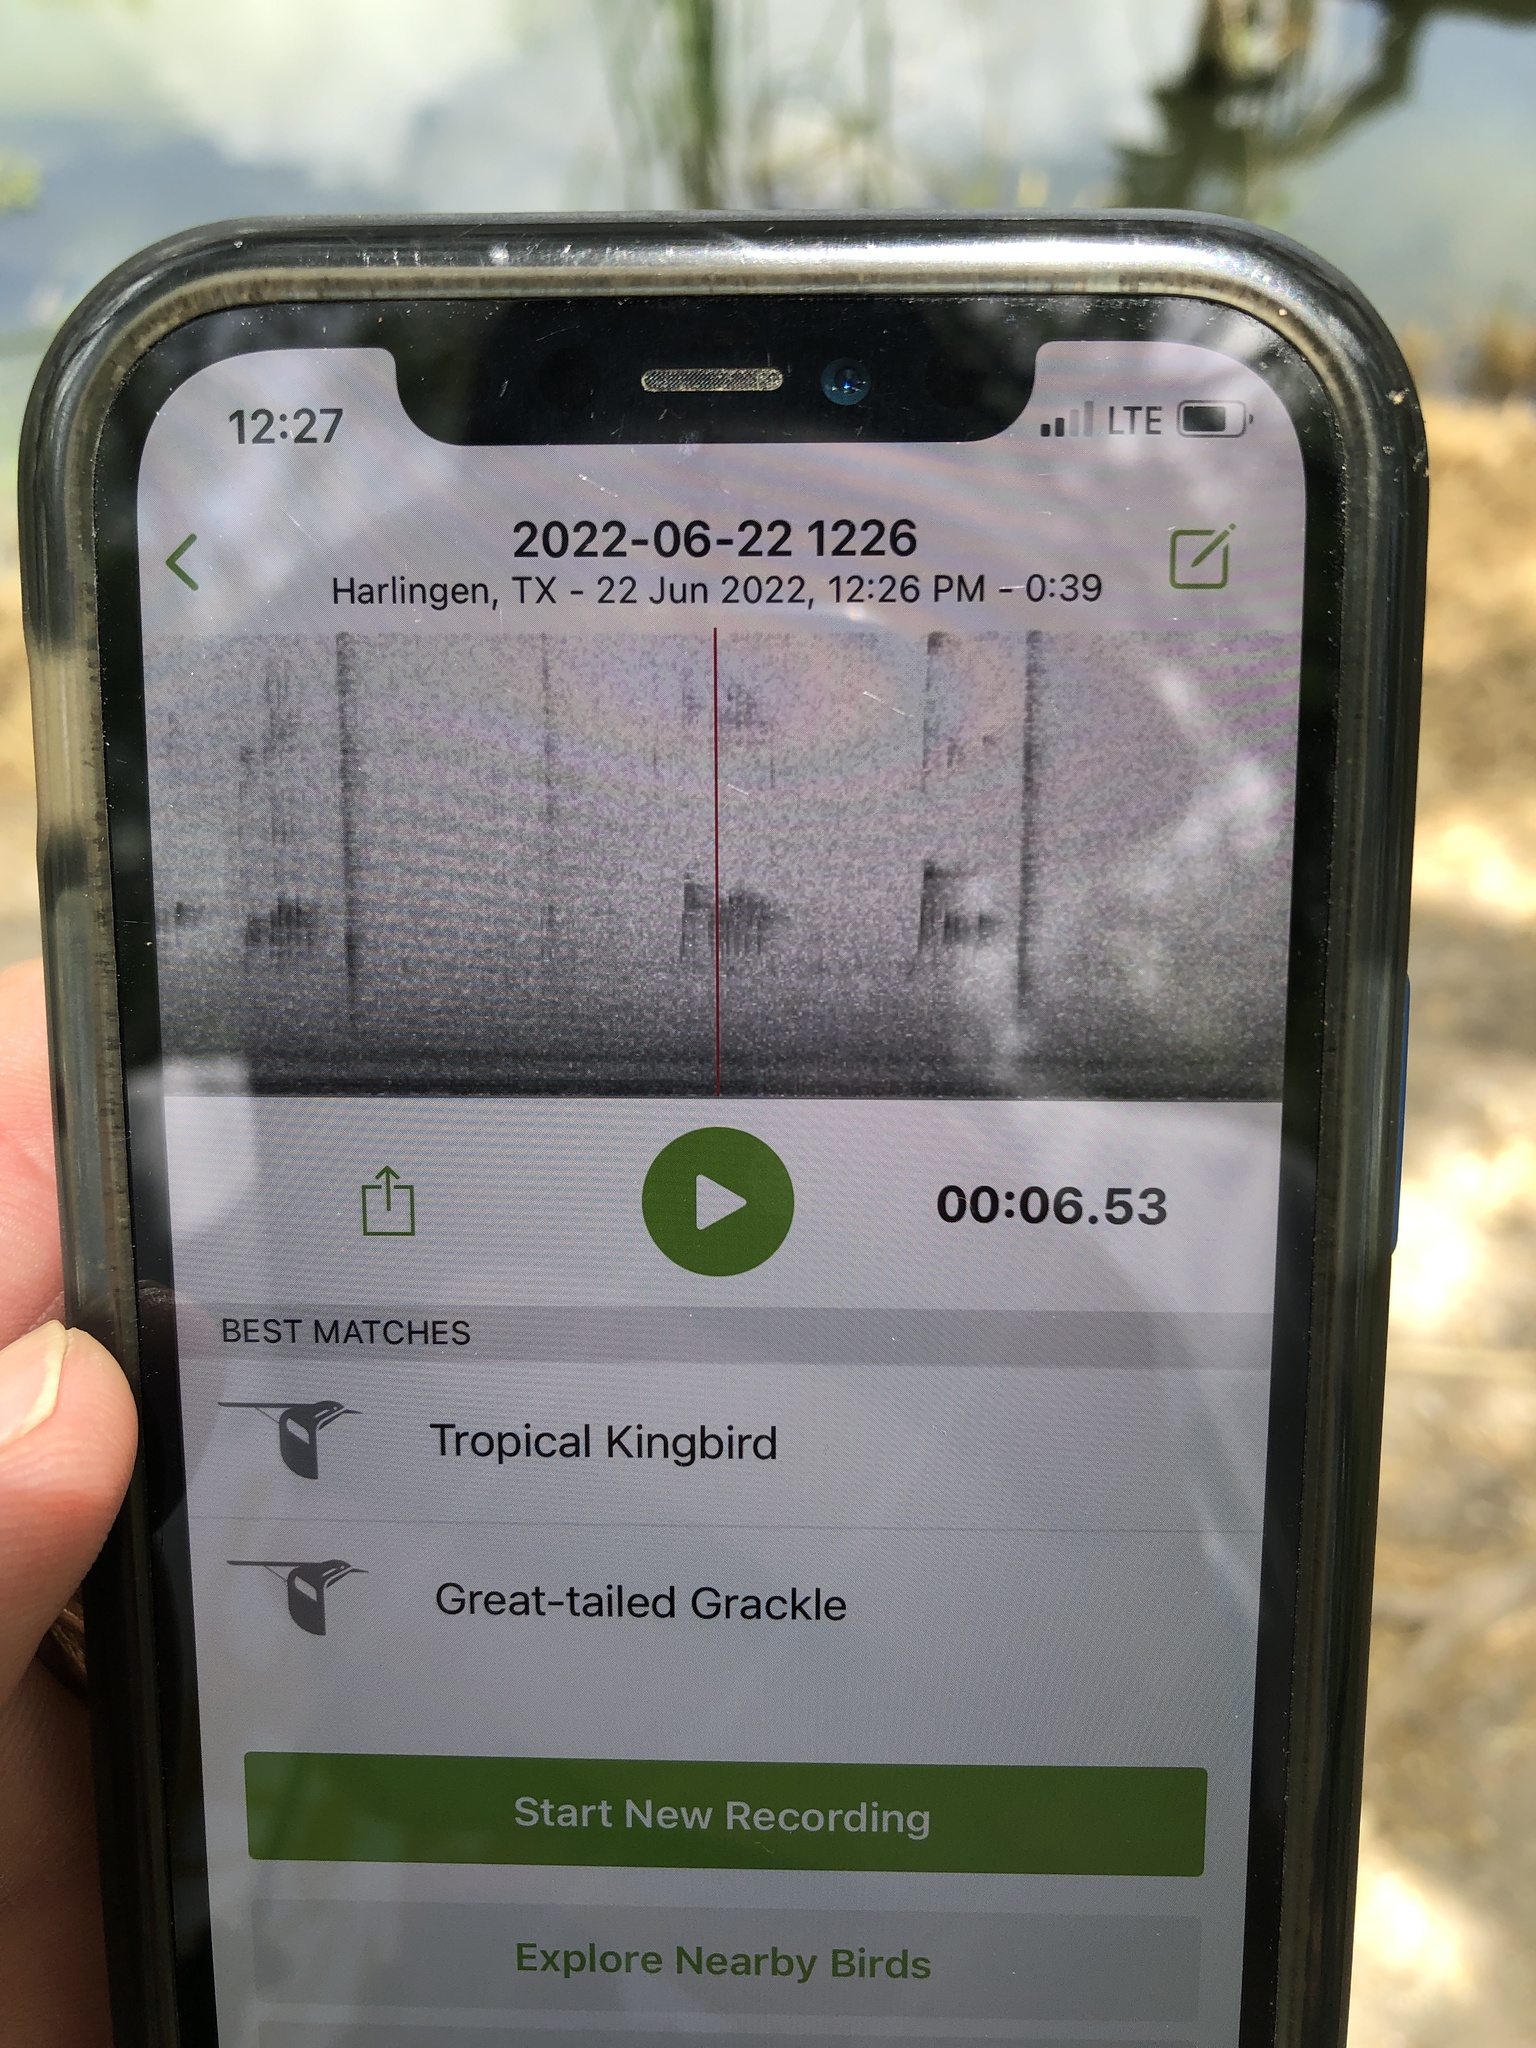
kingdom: Animalia
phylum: Chordata
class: Aves
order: Passeriformes
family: Tyrannidae
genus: Tyrannus
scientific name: Tyrannus melancholicus
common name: Tropical kingbird
